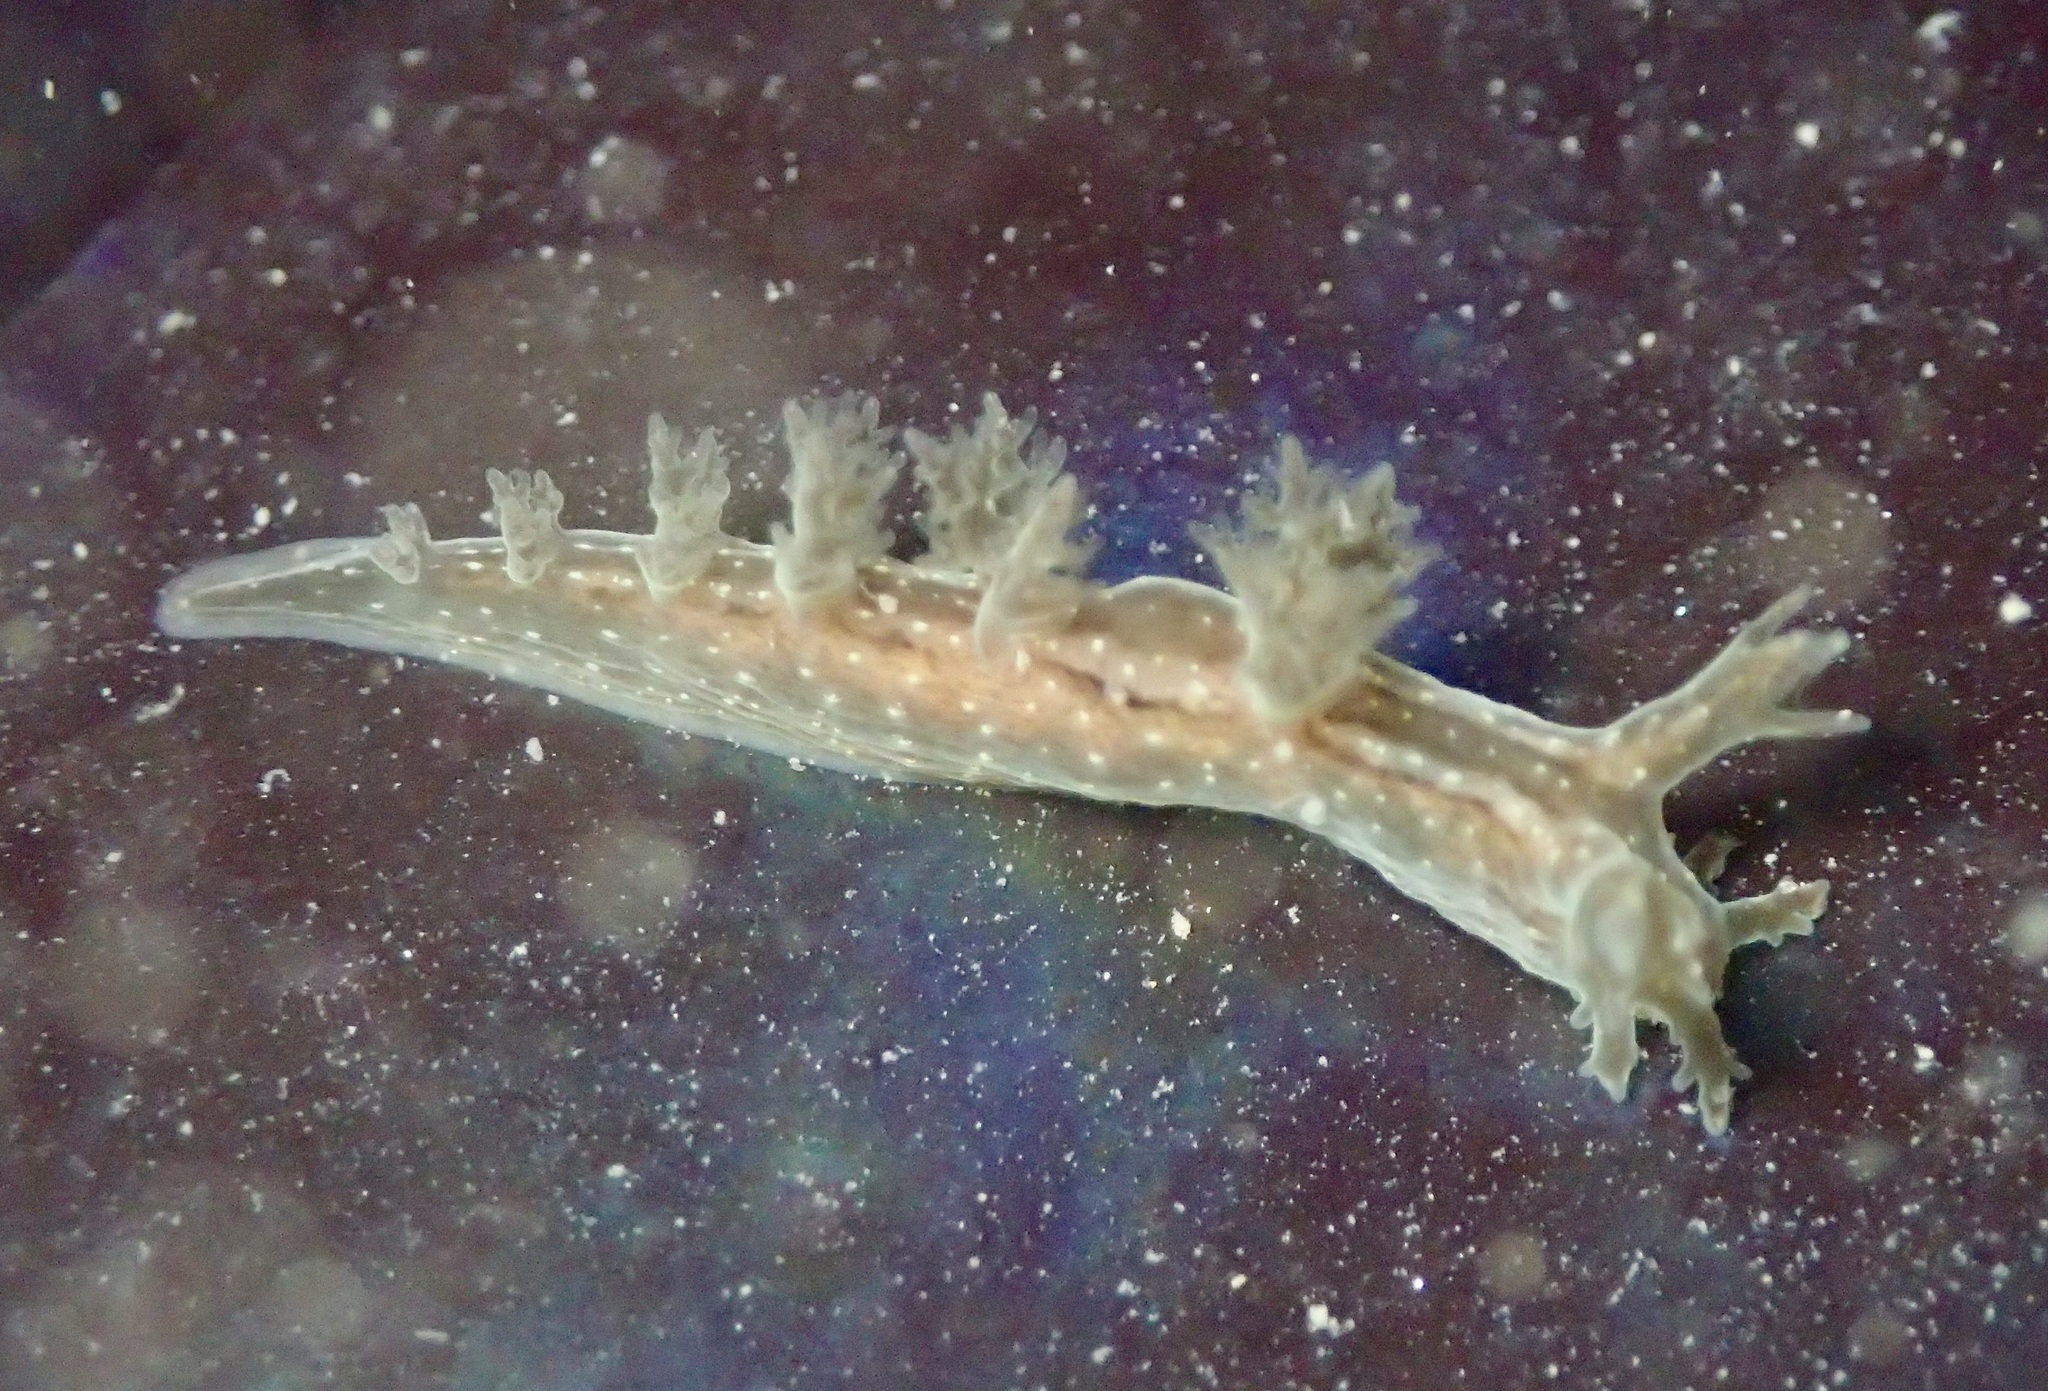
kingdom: Animalia
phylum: Mollusca
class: Gastropoda
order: Nudibranchia
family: Dendronotidae
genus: Dendronotus
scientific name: Dendronotus subramosus
